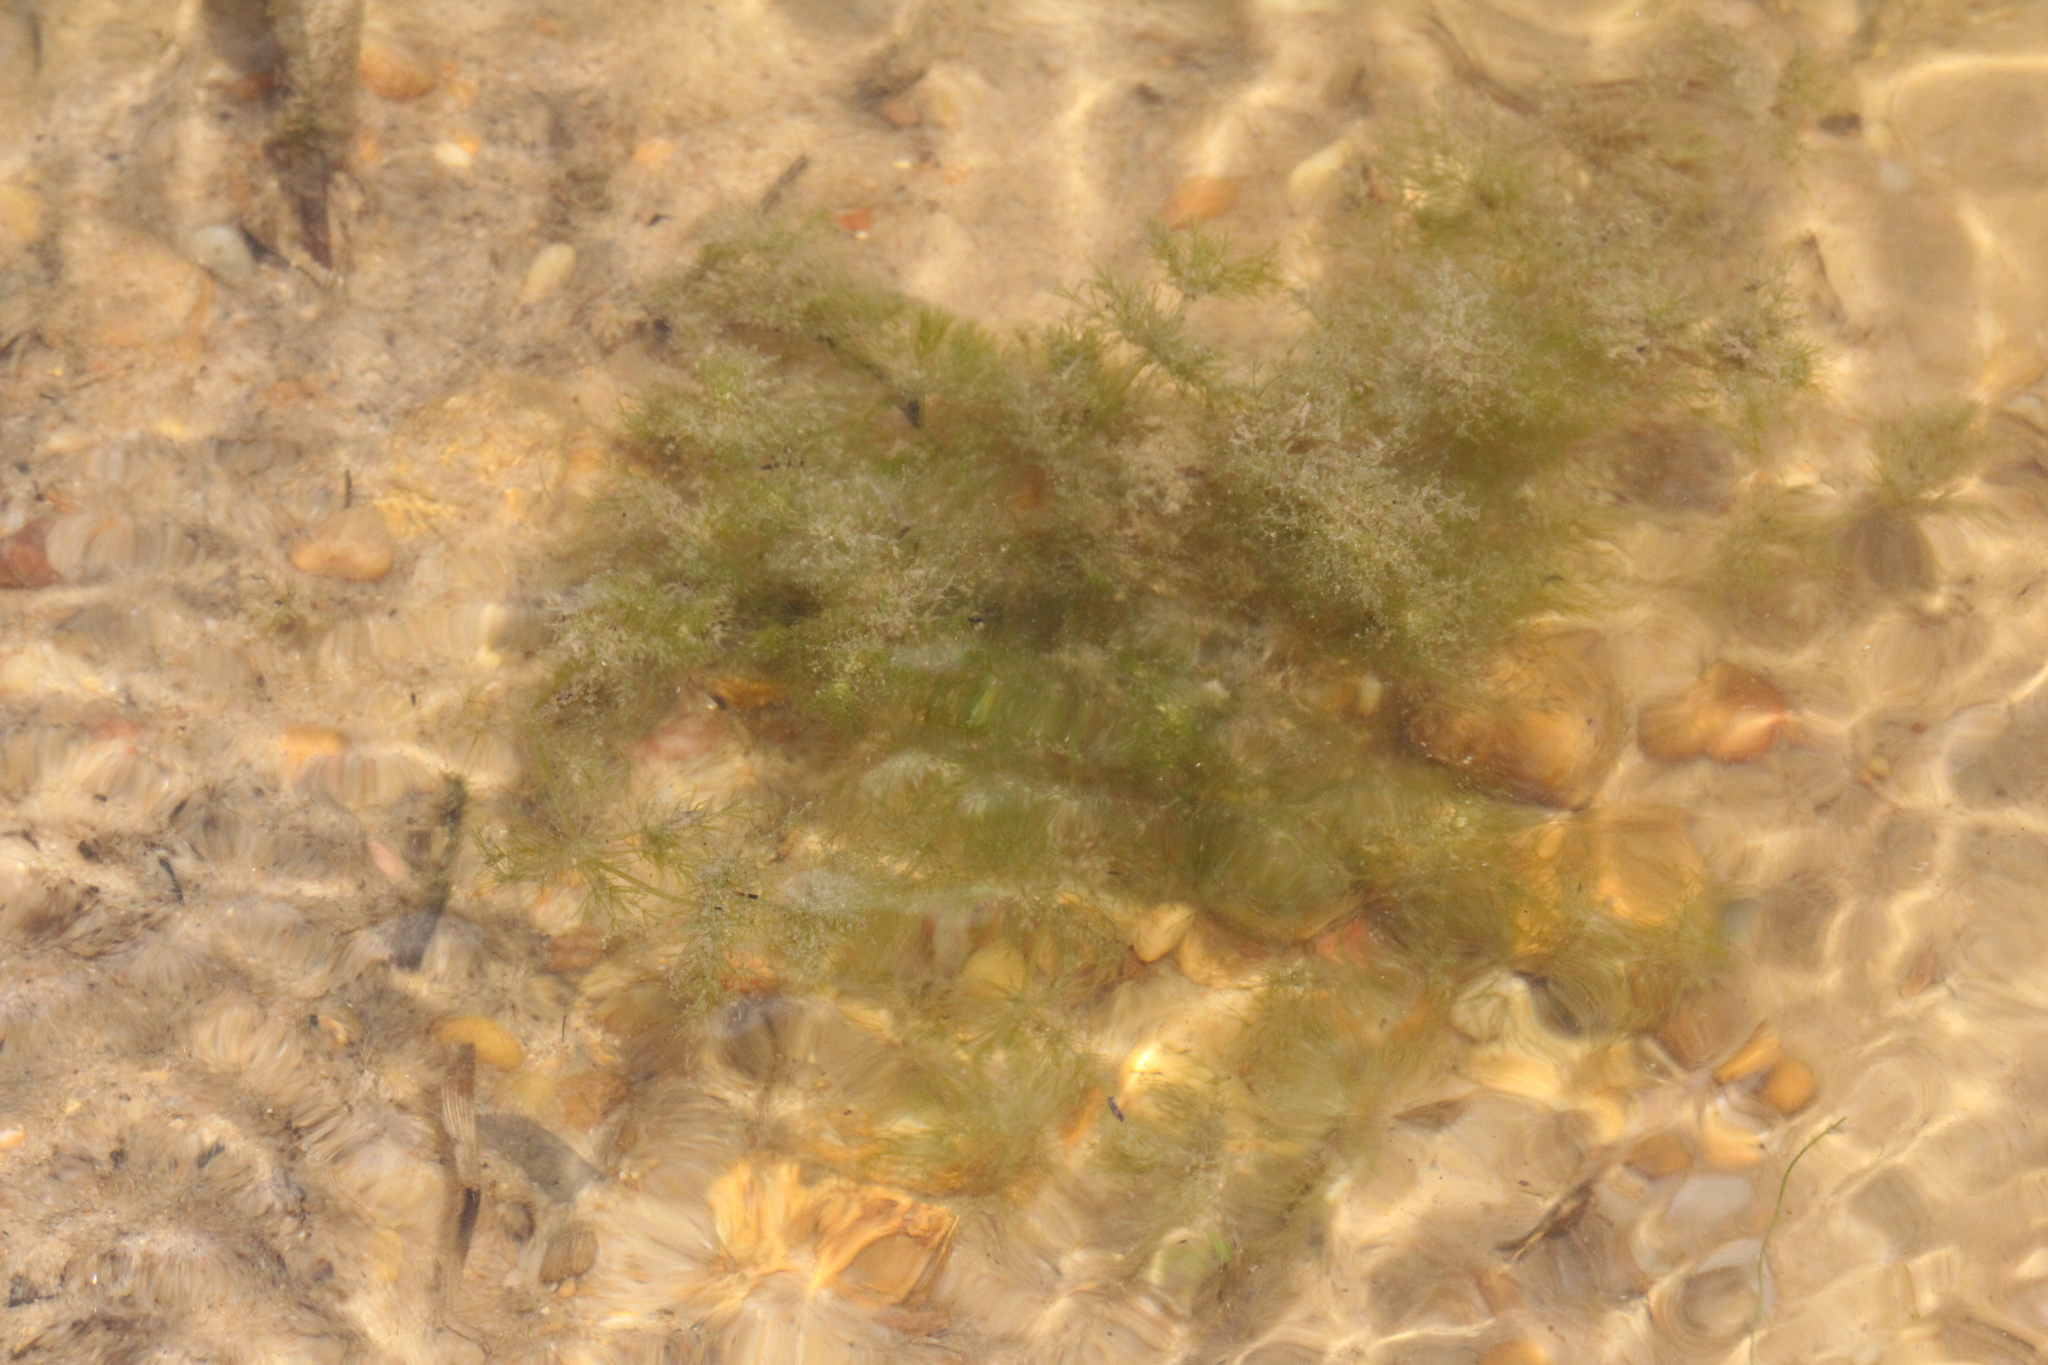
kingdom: Plantae
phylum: Charophyta
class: Charophyceae
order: Charales
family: Characeae
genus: Lychnothamnus
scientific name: Lychnothamnus barbatus
